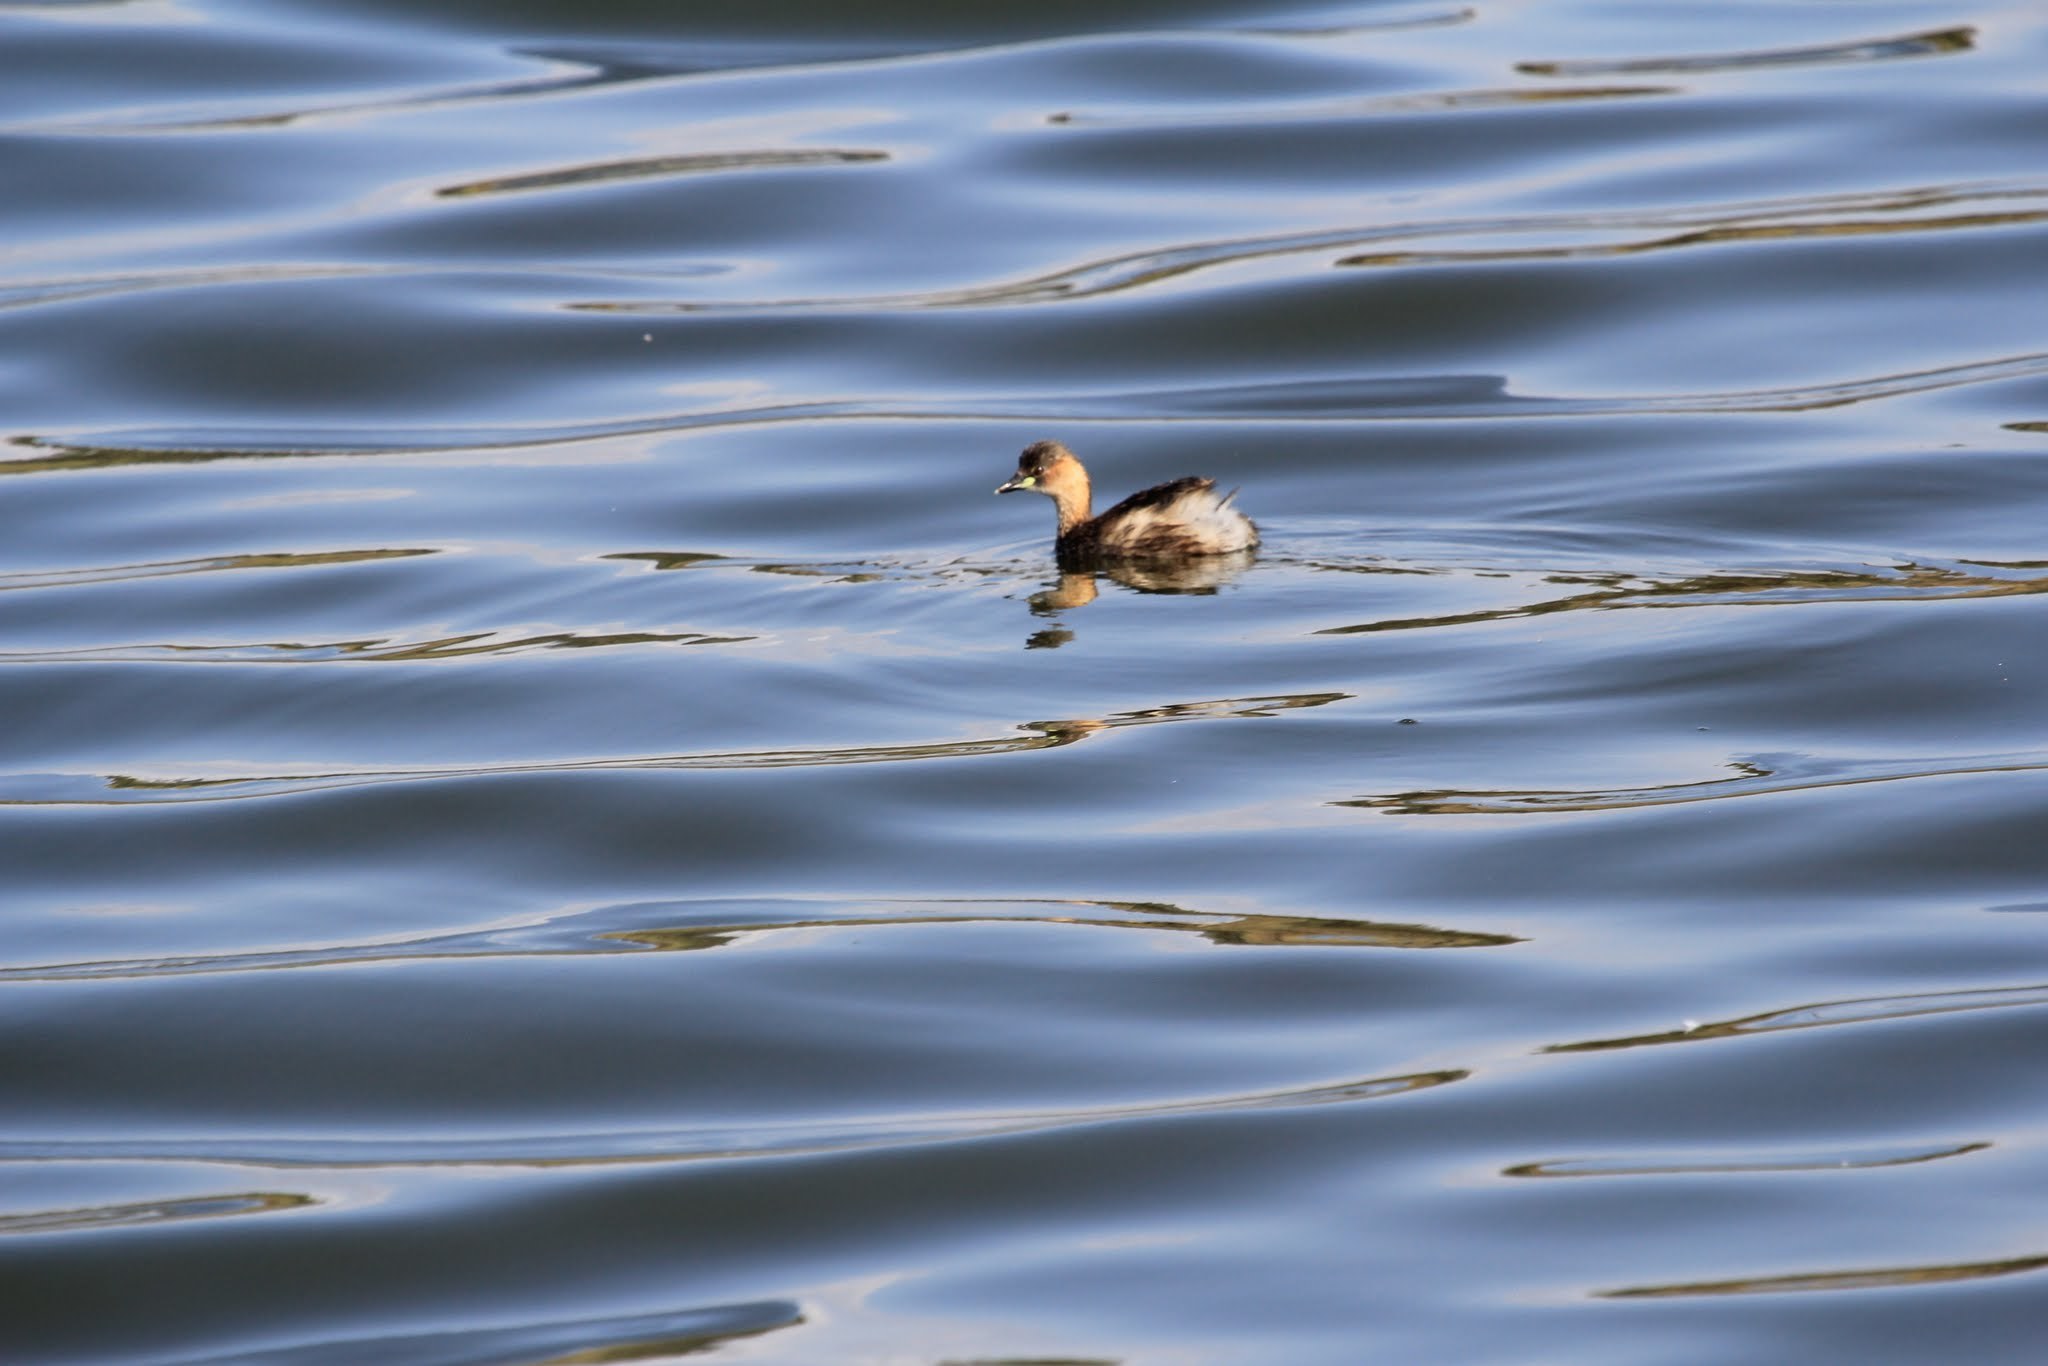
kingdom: Animalia
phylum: Chordata
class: Aves
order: Podicipediformes
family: Podicipedidae
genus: Tachybaptus
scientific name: Tachybaptus ruficollis
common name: Little grebe
